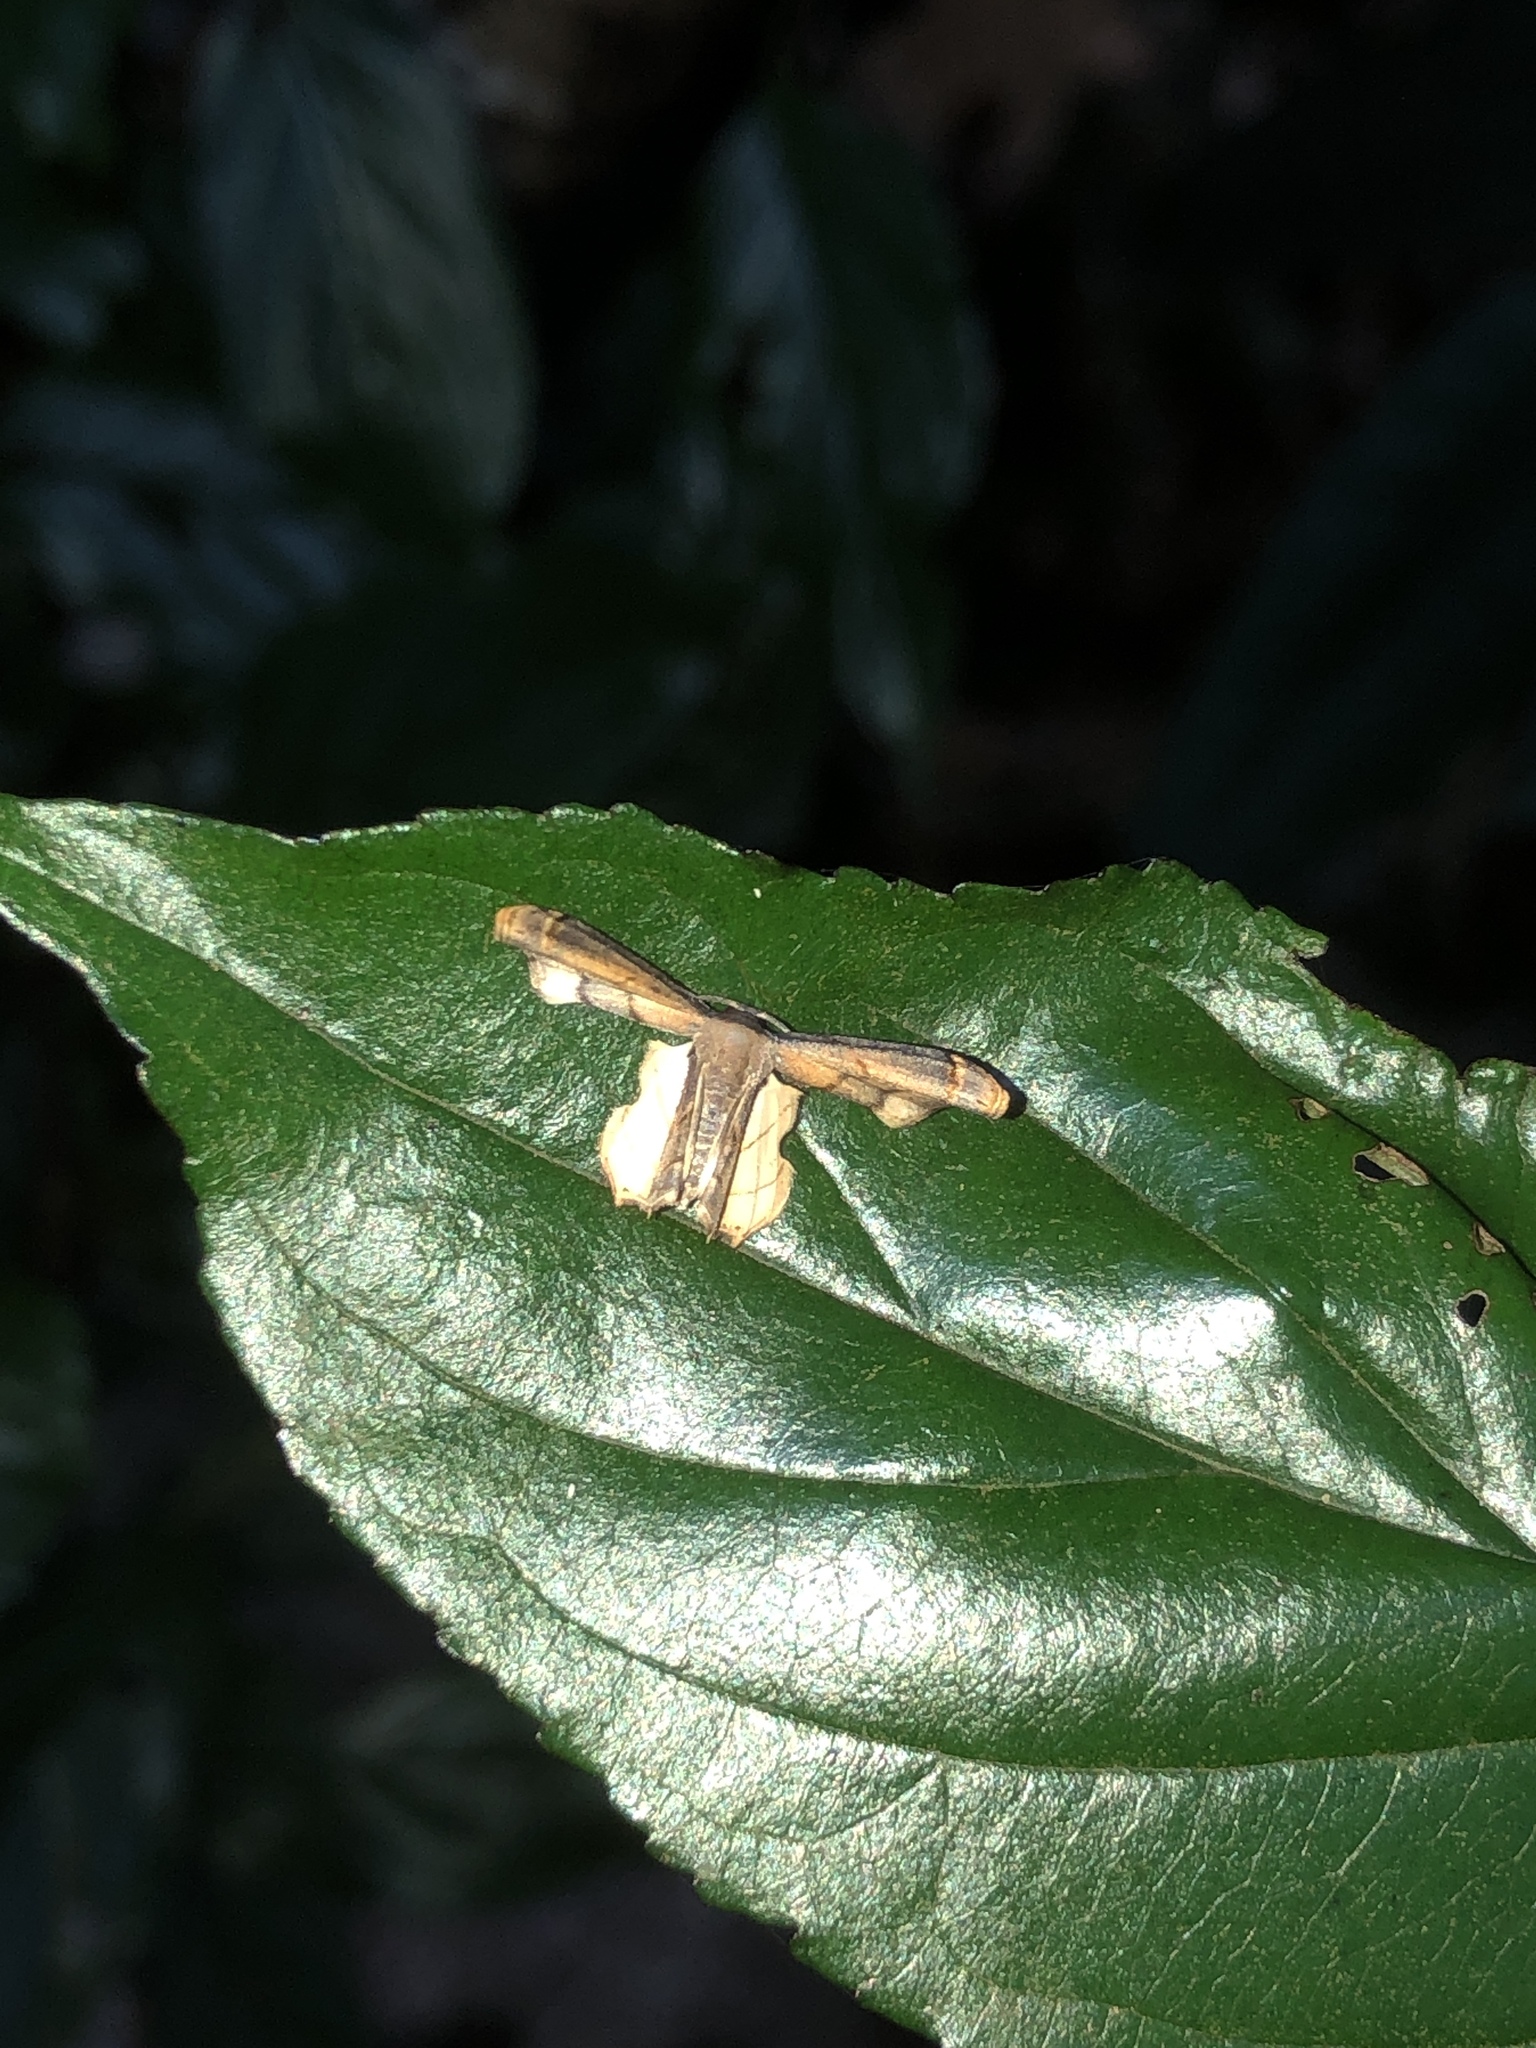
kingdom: Animalia
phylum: Arthropoda
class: Insecta
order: Lepidoptera
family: Uraniidae
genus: Warreniplema
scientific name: Warreniplema fumicosta
